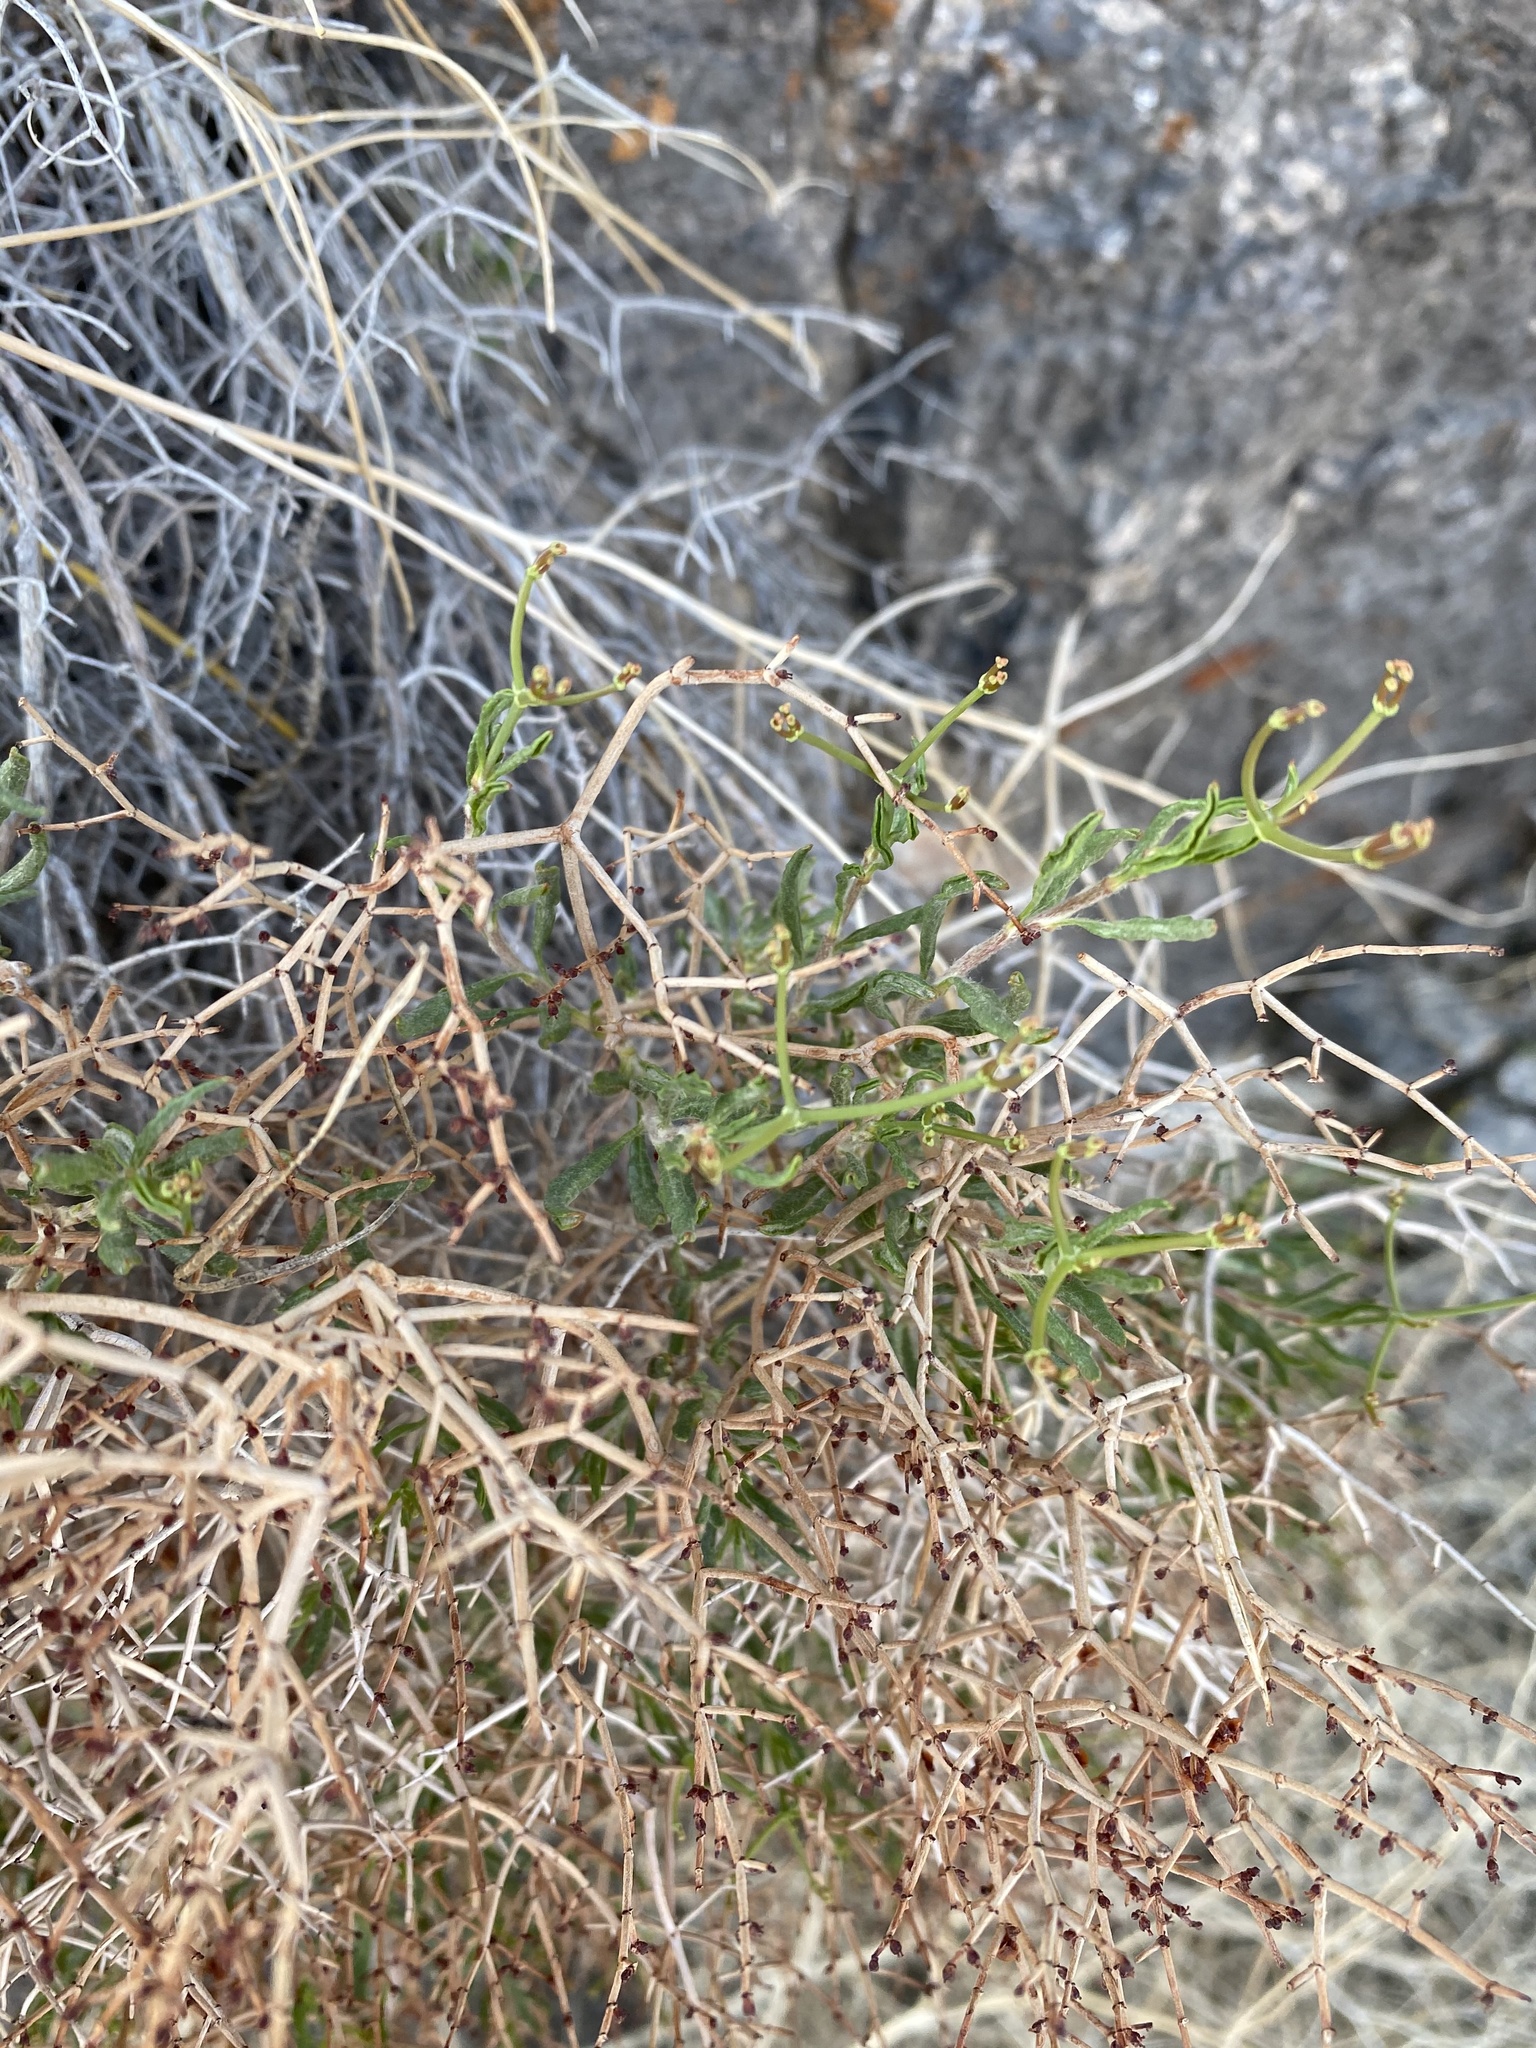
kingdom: Plantae
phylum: Tracheophyta
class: Magnoliopsida
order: Caryophyllales
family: Polygonaceae
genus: Eriogonum
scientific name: Eriogonum heermannii
